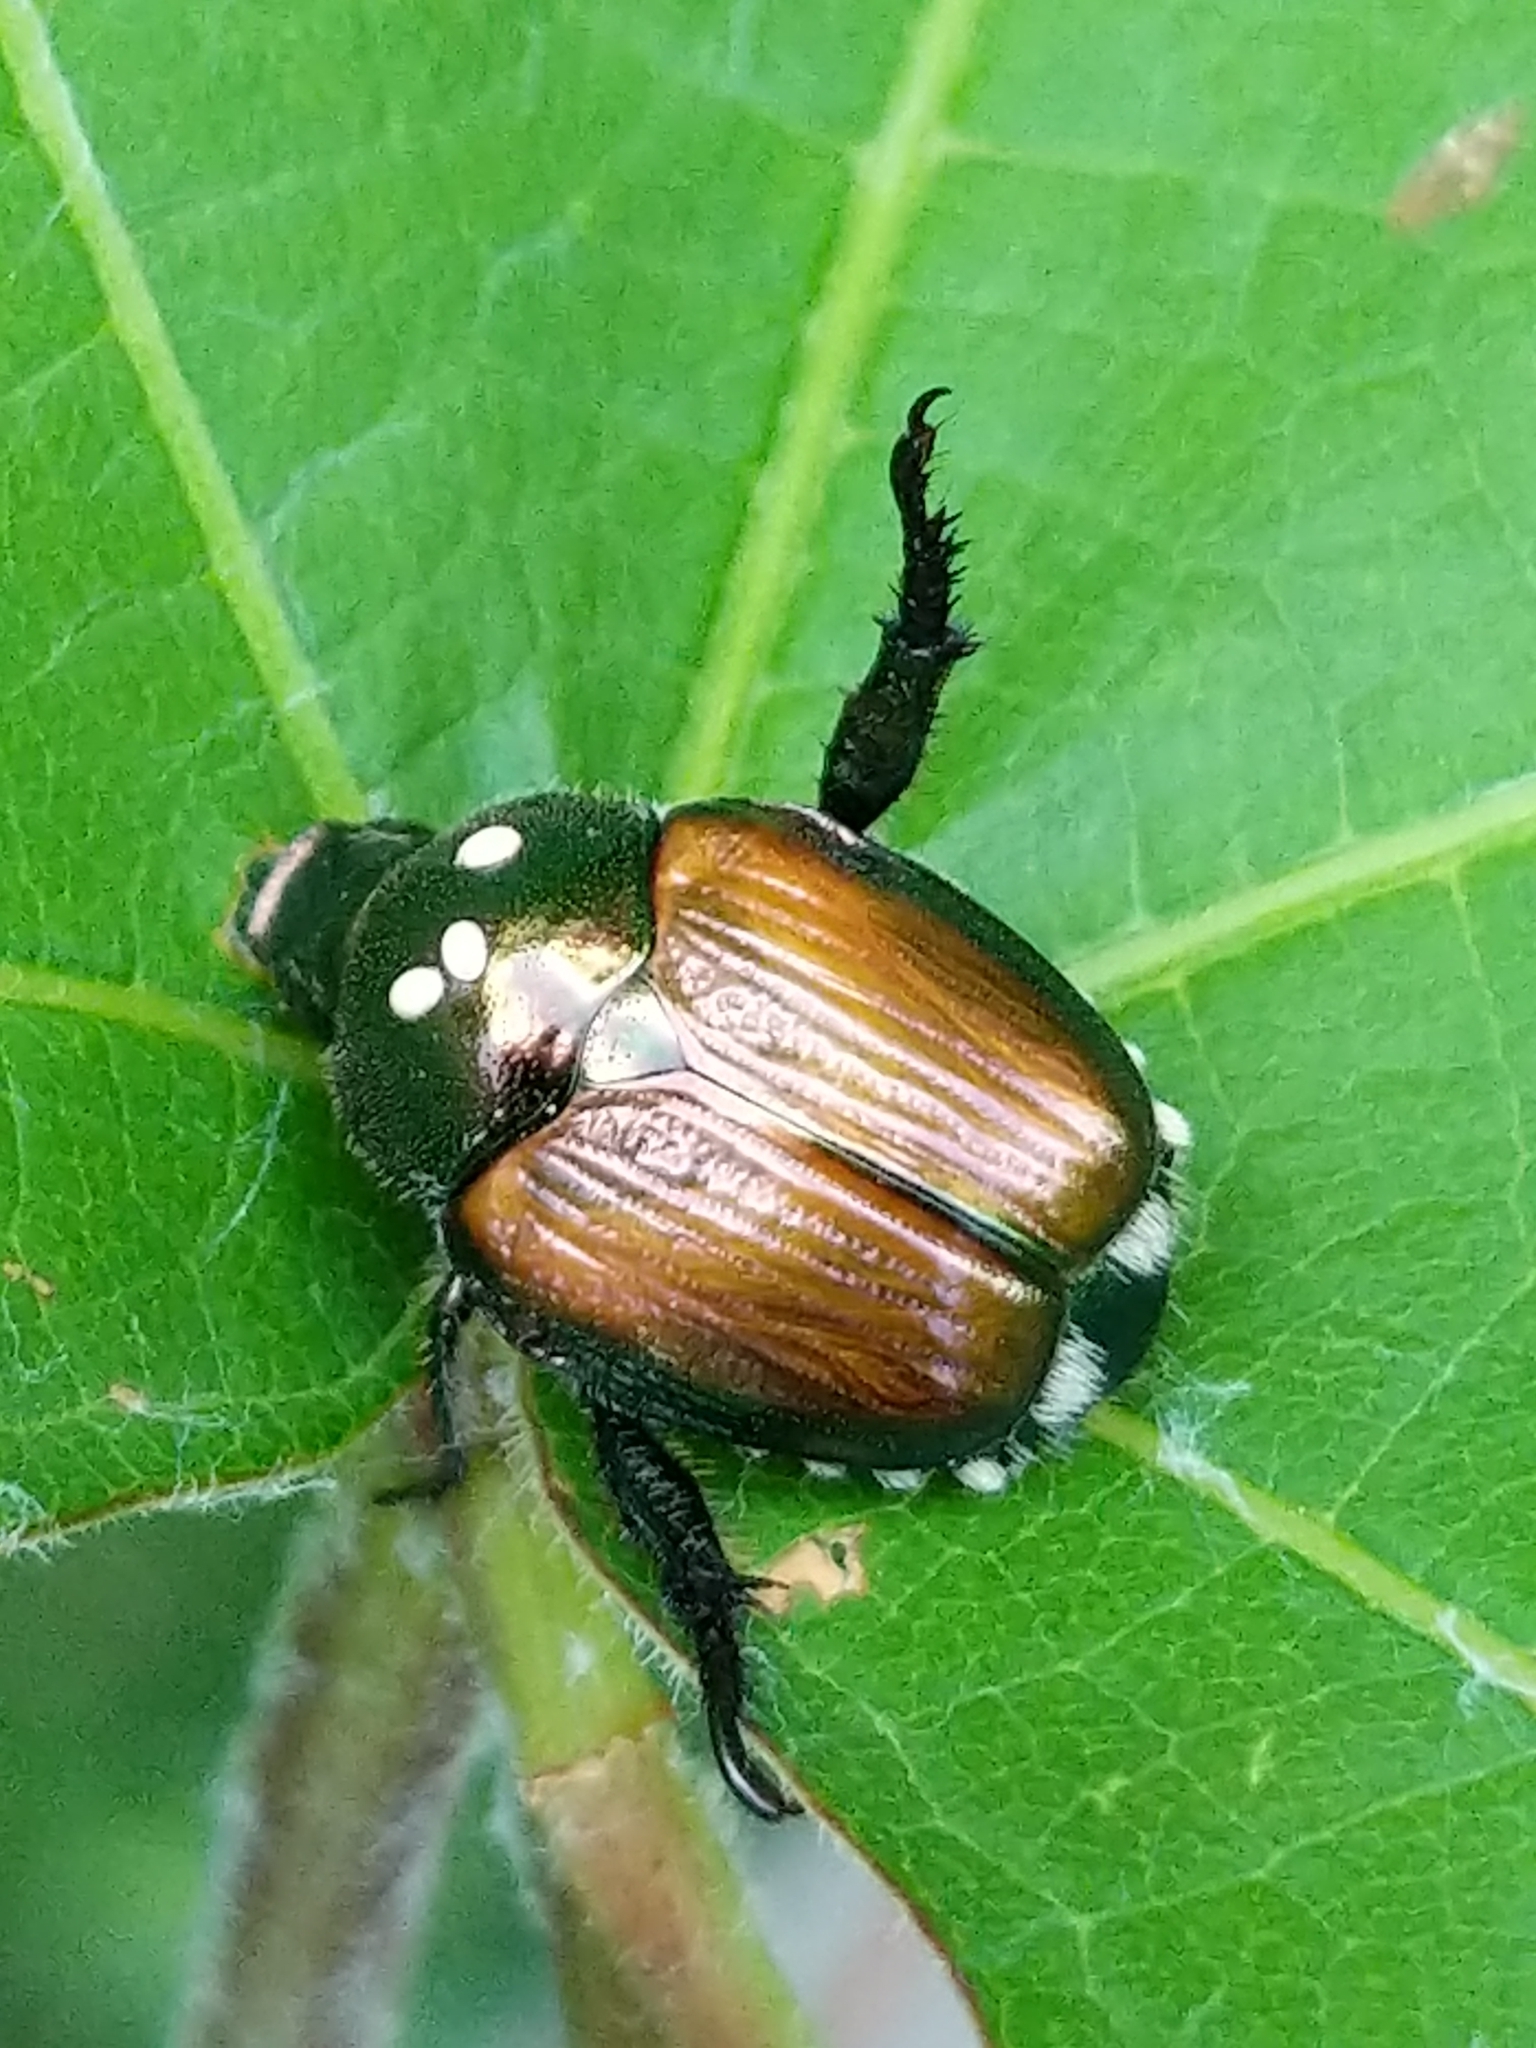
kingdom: Animalia
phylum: Arthropoda
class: Insecta
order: Diptera
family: Tachinidae
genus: Istocheta
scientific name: Istocheta aldrichi
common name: Parasitic wasp
